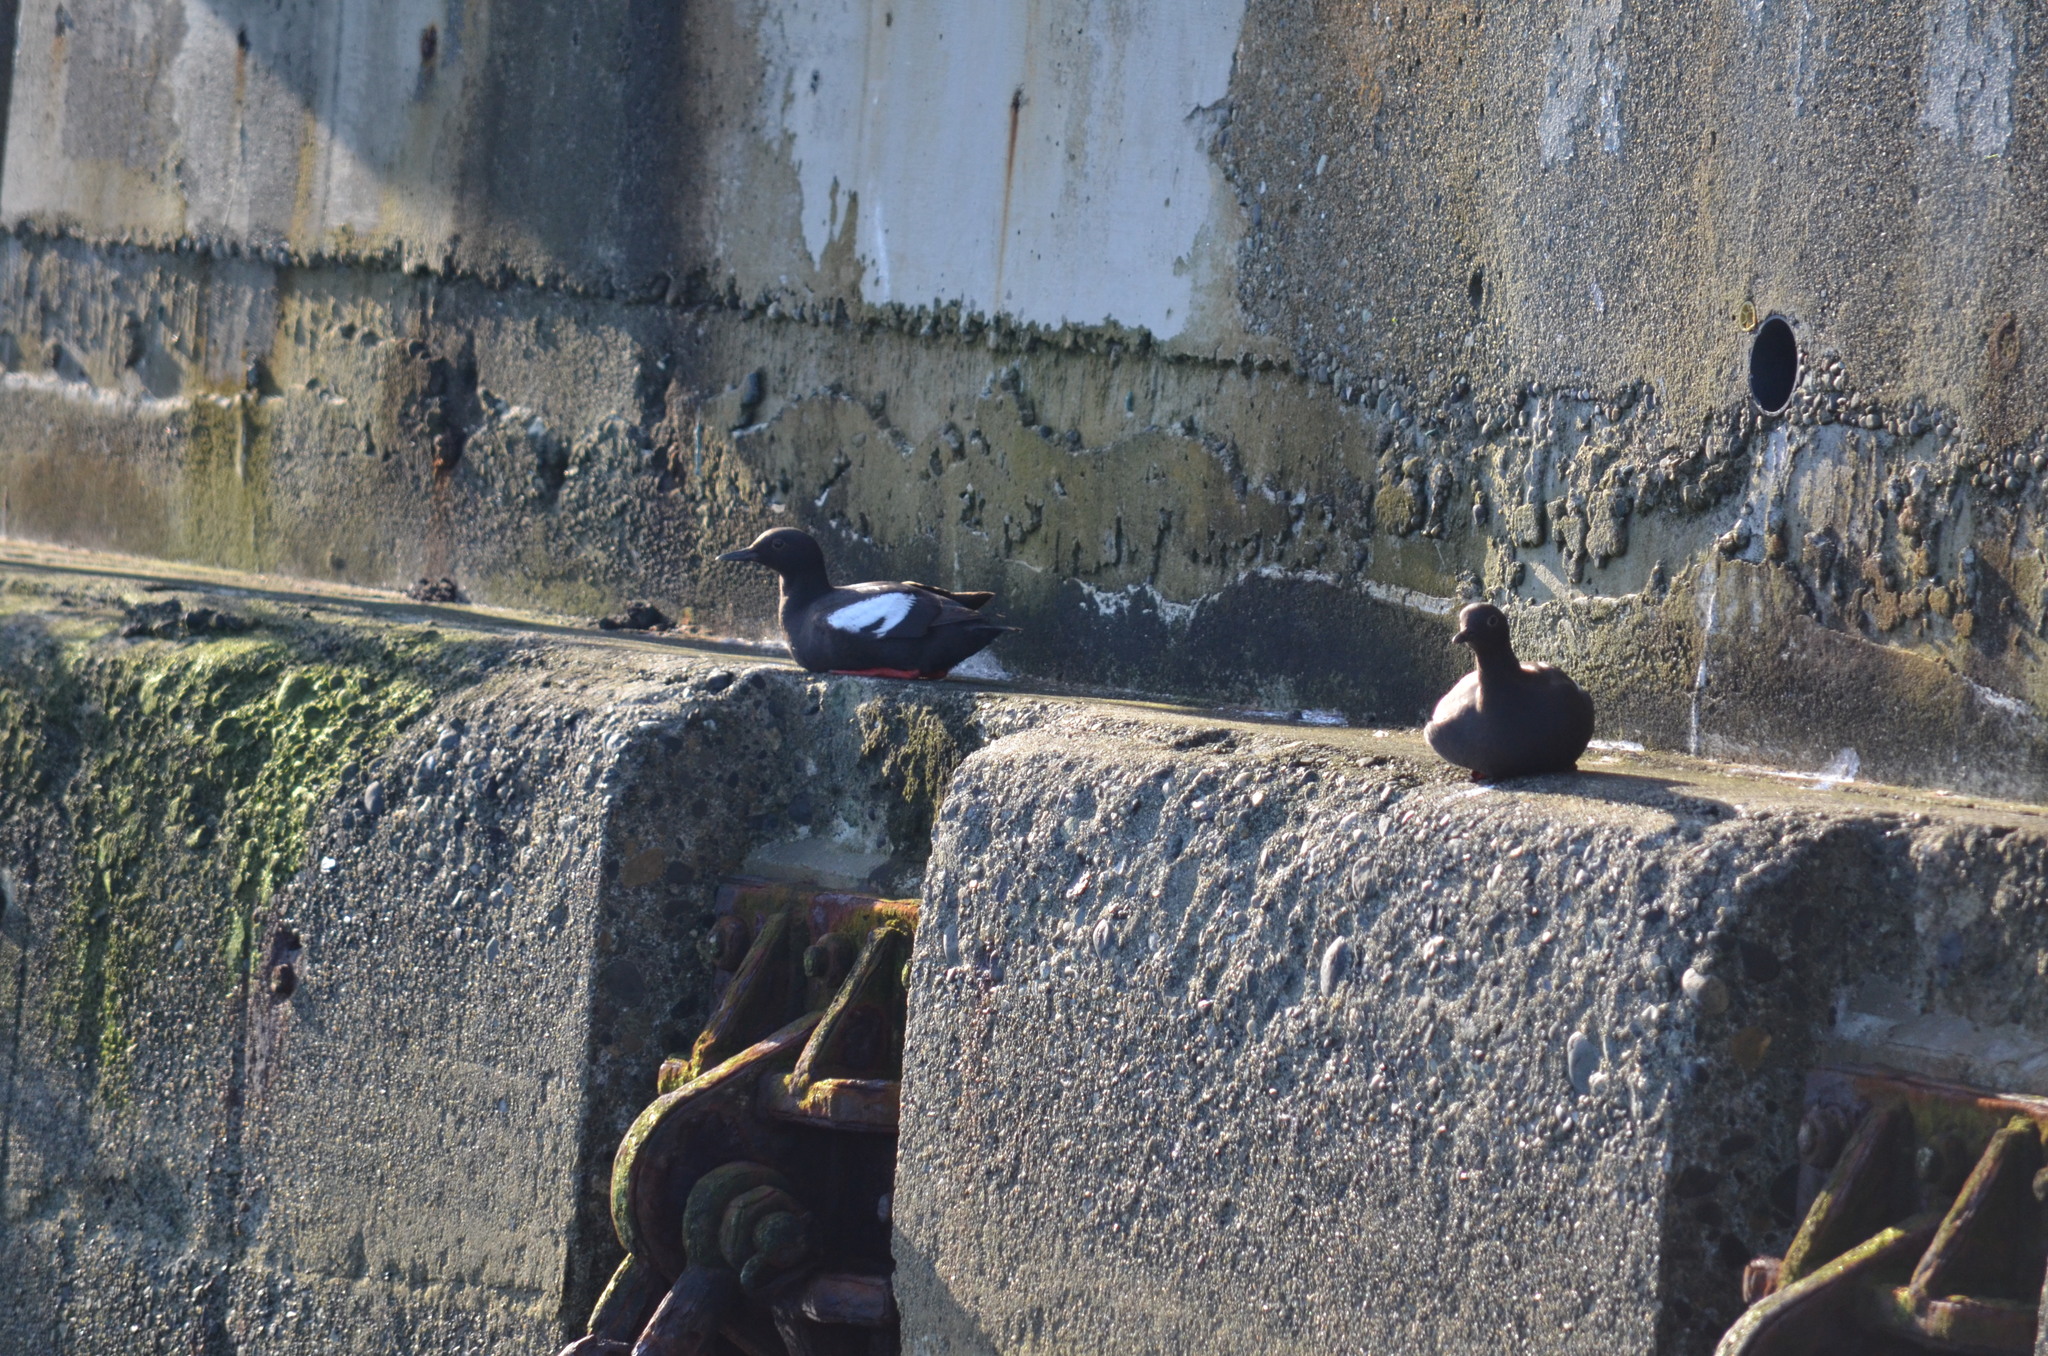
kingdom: Animalia
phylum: Chordata
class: Aves
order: Charadriiformes
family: Alcidae
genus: Cepphus
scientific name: Cepphus columba
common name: Pigeon guillemot
